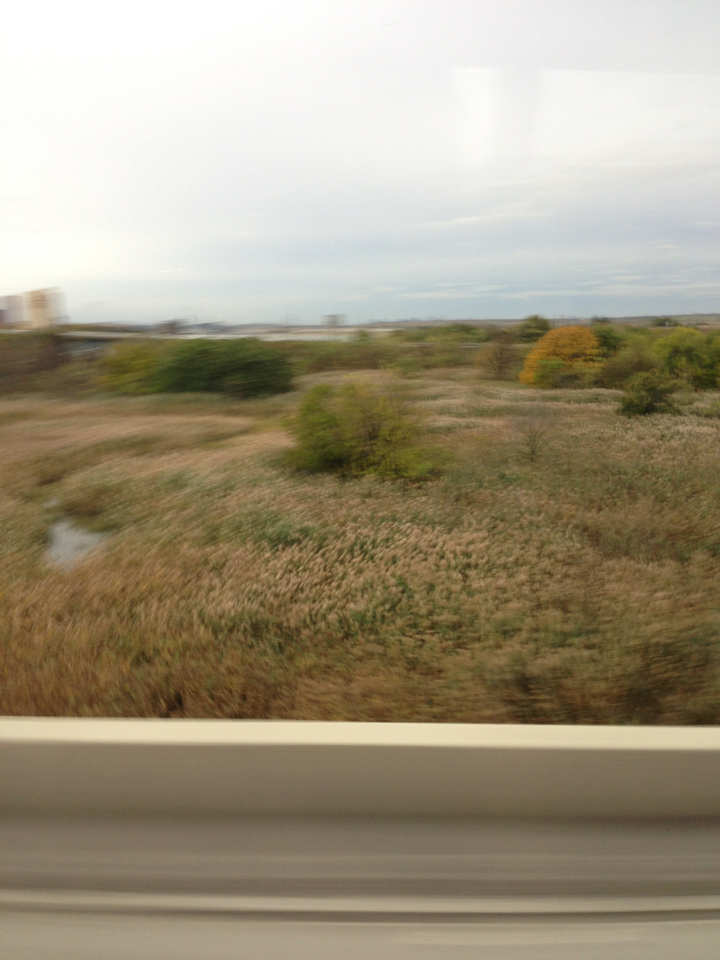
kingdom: Plantae
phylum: Tracheophyta
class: Liliopsida
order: Poales
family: Poaceae
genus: Phragmites
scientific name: Phragmites australis
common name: Common reed
